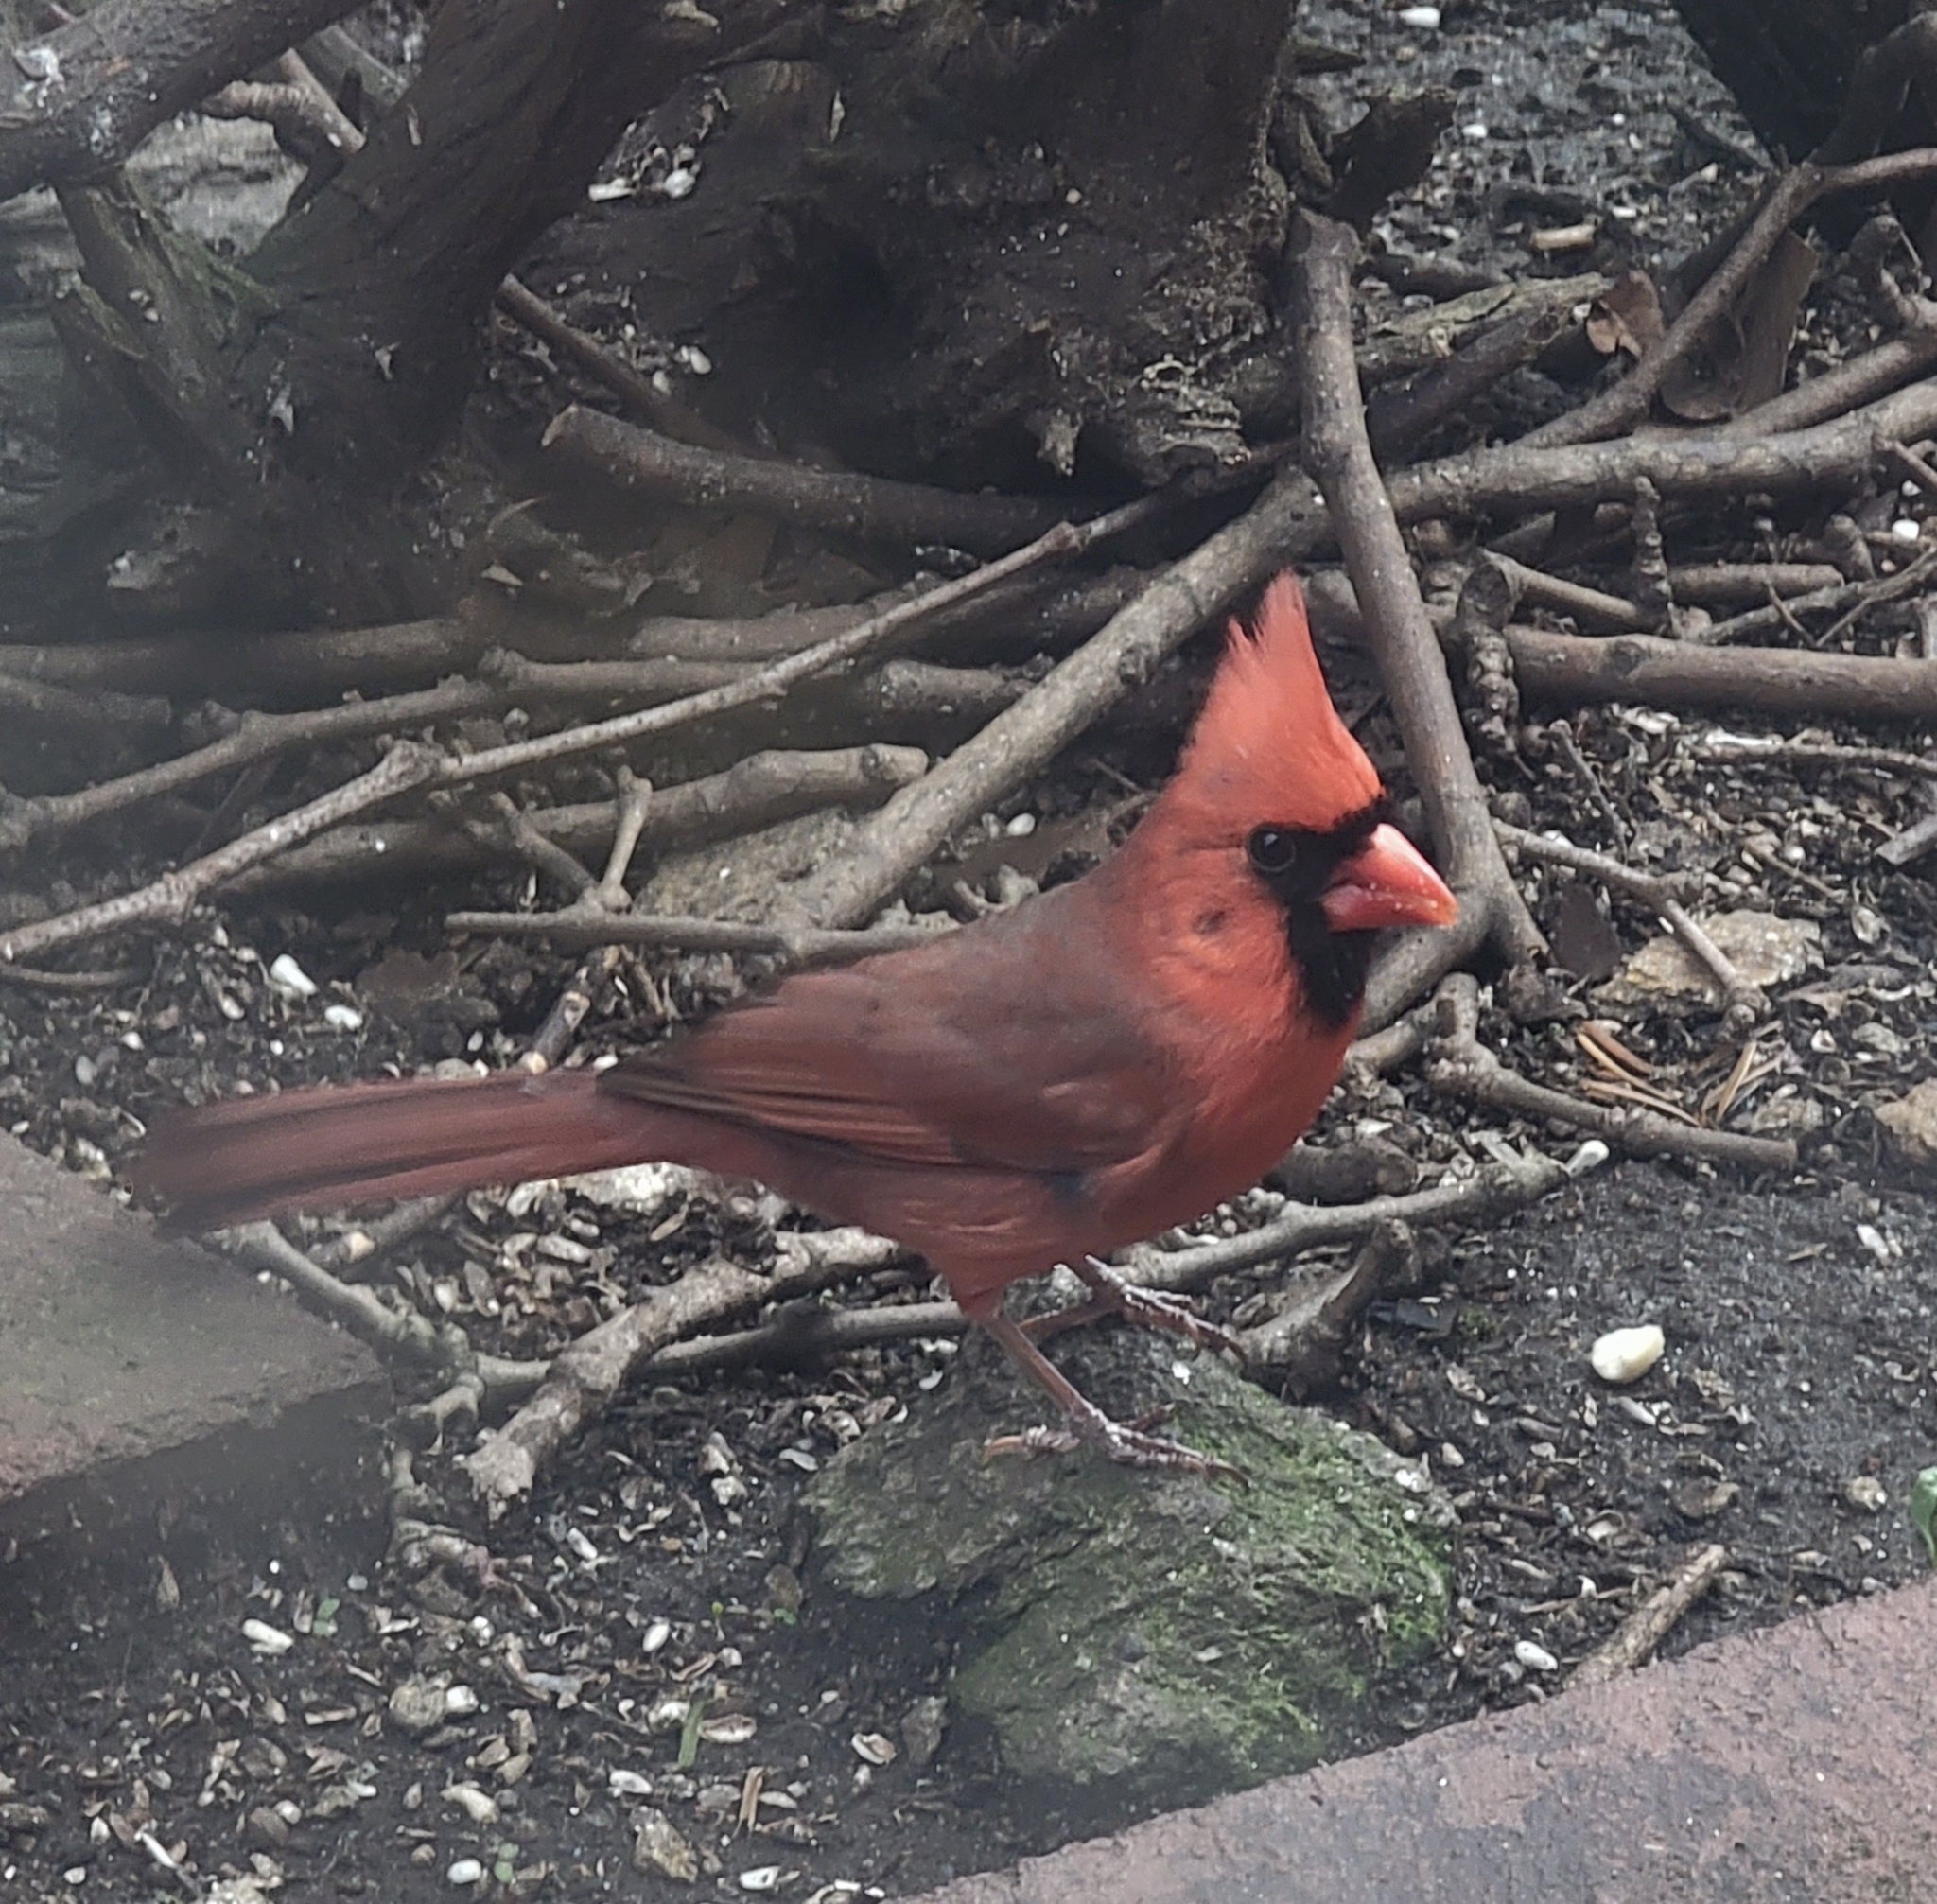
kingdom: Animalia
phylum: Chordata
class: Aves
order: Passeriformes
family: Cardinalidae
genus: Cardinalis
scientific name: Cardinalis cardinalis
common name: Northern cardinal
